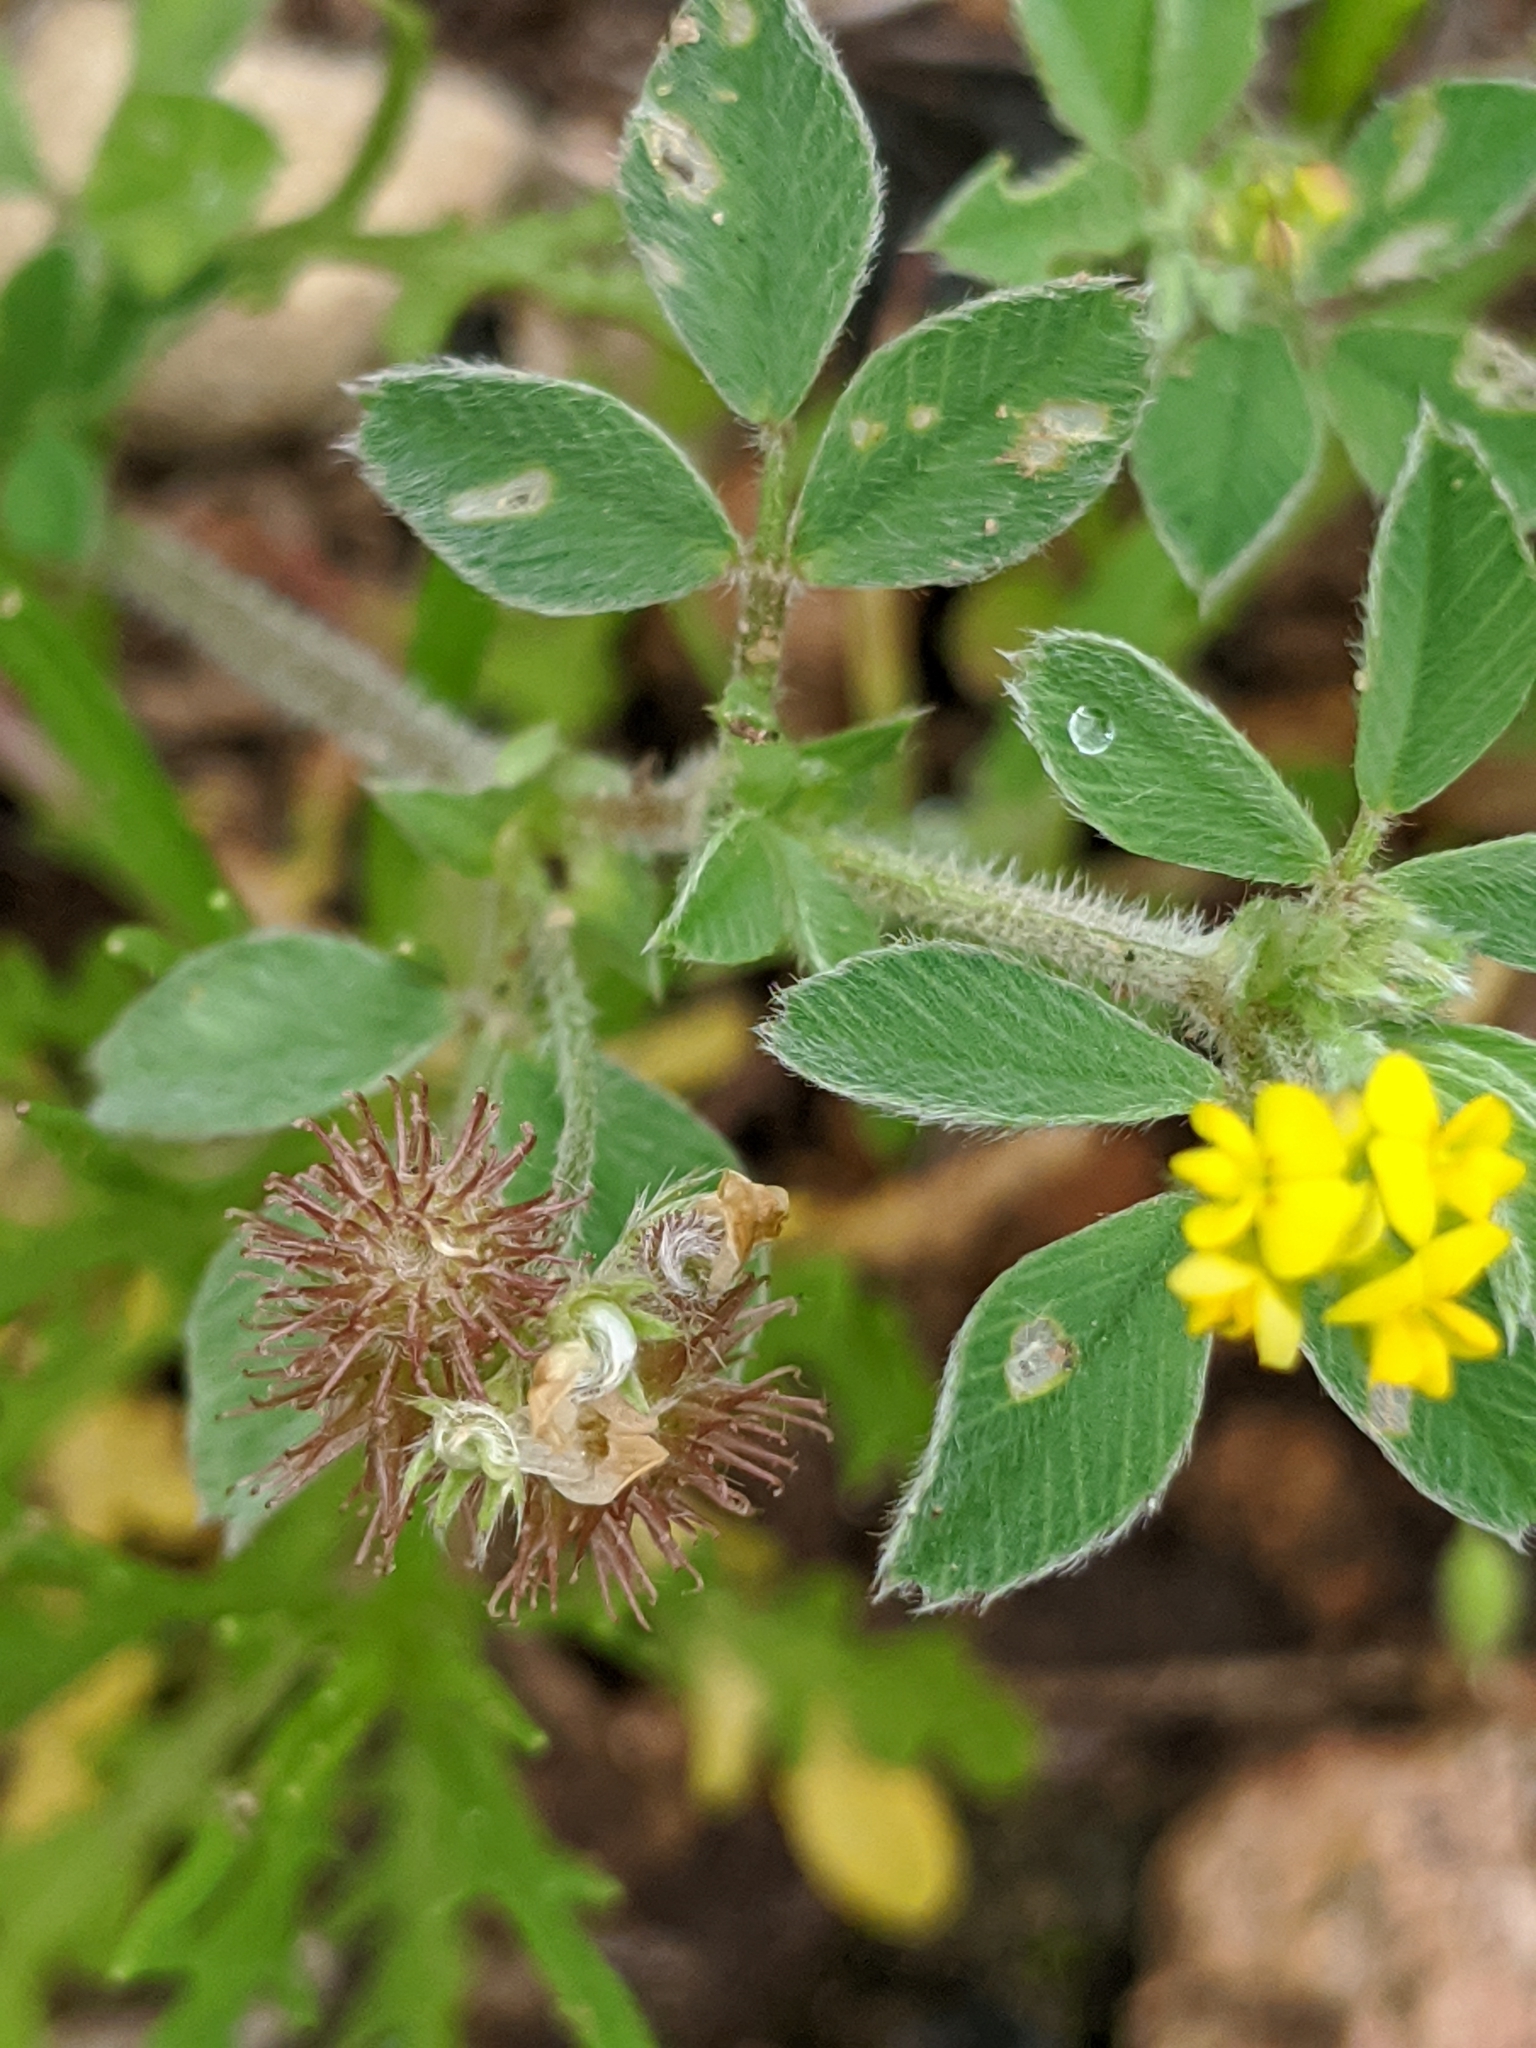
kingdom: Plantae
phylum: Tracheophyta
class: Magnoliopsida
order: Fabales
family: Fabaceae
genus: Medicago
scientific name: Medicago minima
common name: Little bur-clover
